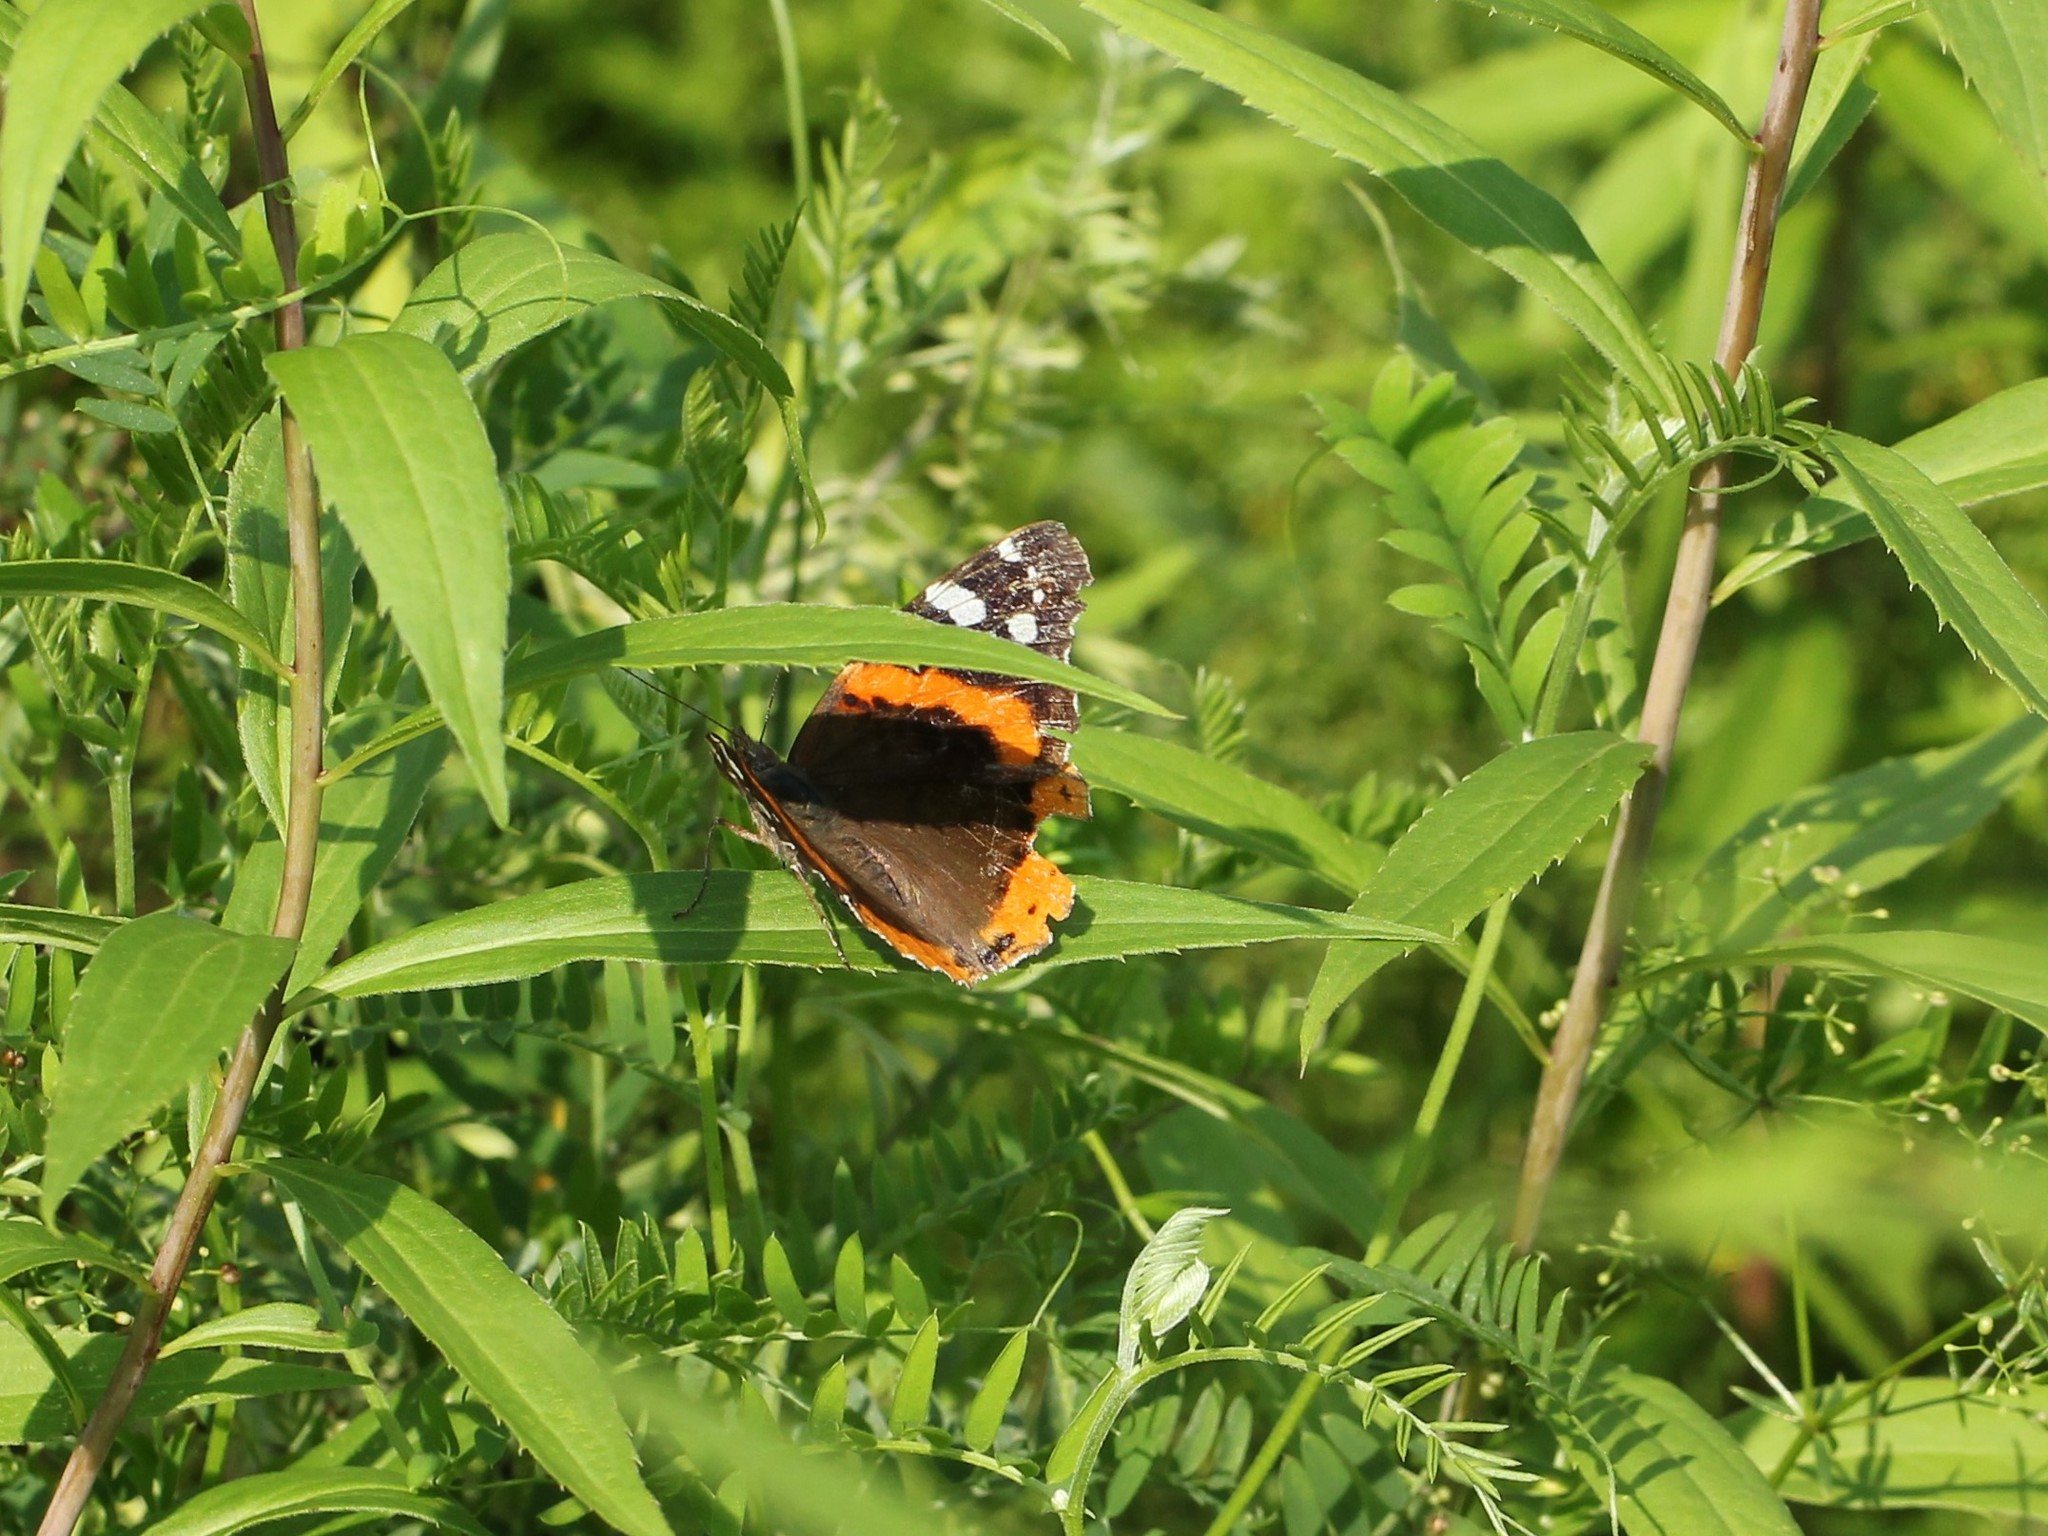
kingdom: Animalia
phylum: Arthropoda
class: Insecta
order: Lepidoptera
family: Nymphalidae
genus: Vanessa
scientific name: Vanessa atalanta
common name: Red admiral
